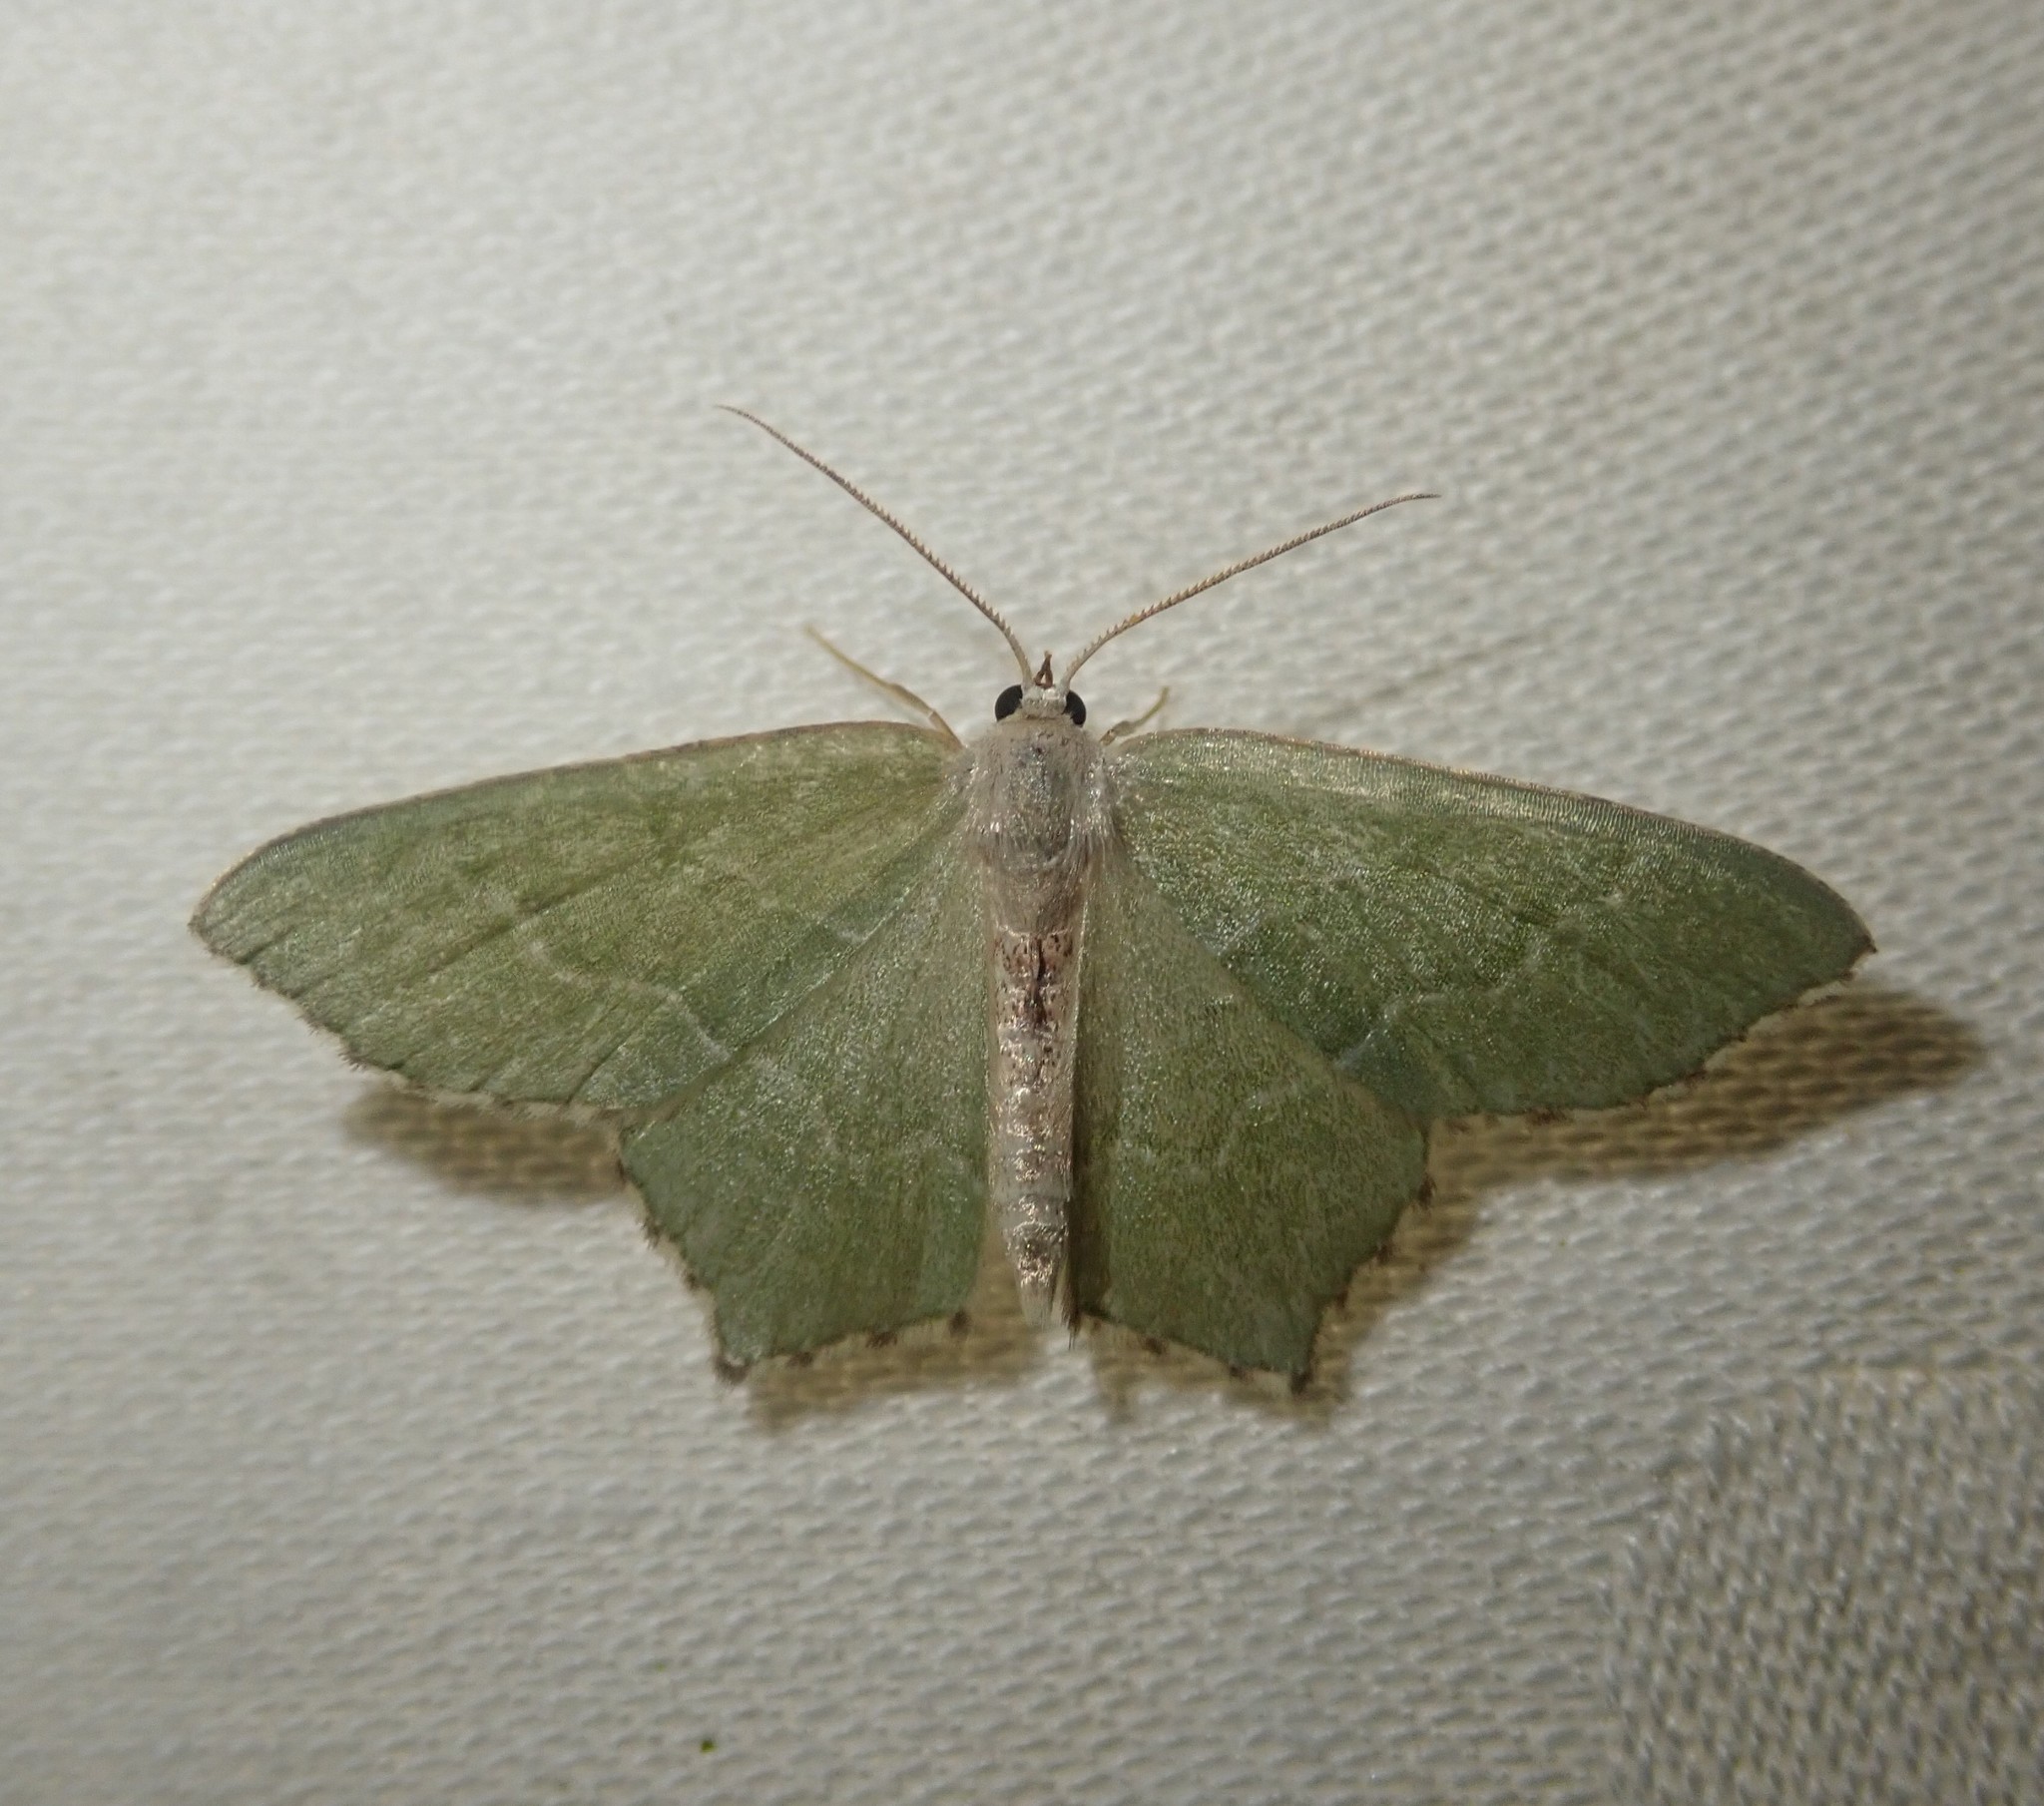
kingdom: Animalia
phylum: Arthropoda
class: Insecta
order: Lepidoptera
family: Geometridae
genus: Hemithea
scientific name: Hemithea aestivaria
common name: Common emerald
